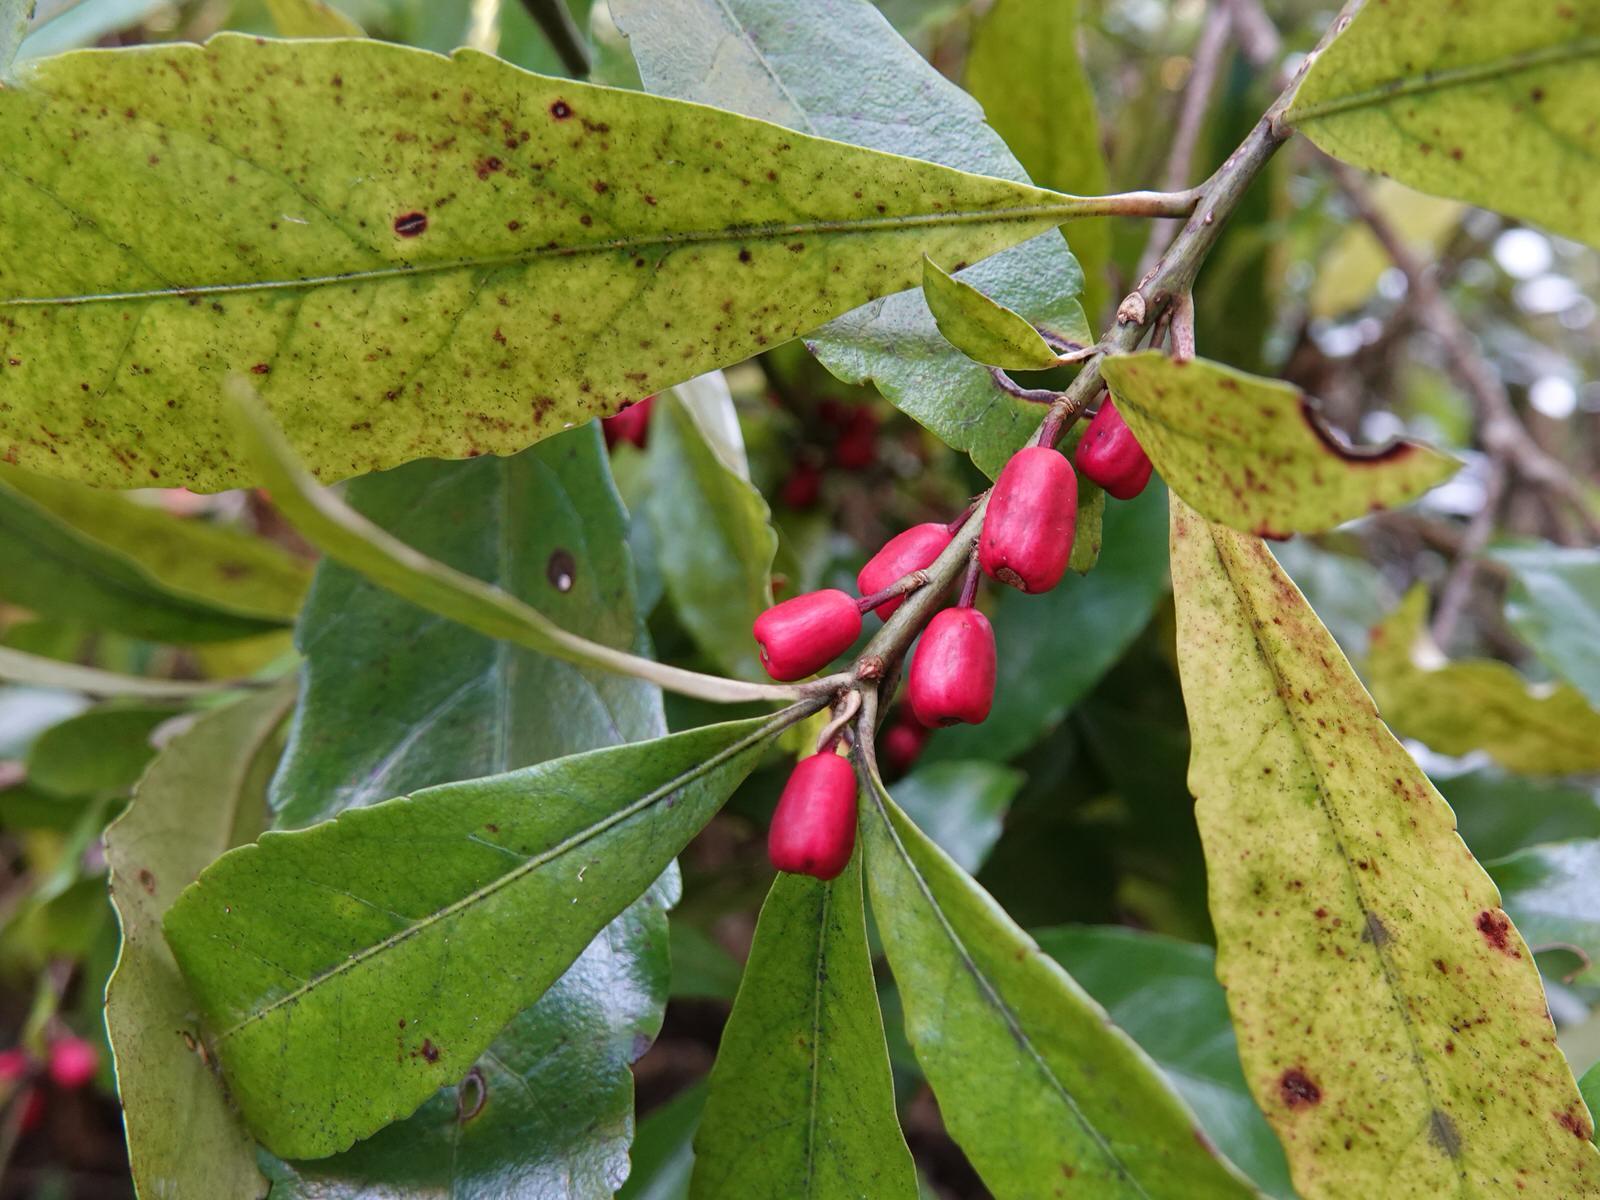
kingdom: Plantae
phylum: Tracheophyta
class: Magnoliopsida
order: Asterales
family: Alseuosmiaceae
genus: Alseuosmia
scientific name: Alseuosmia macrophylla
